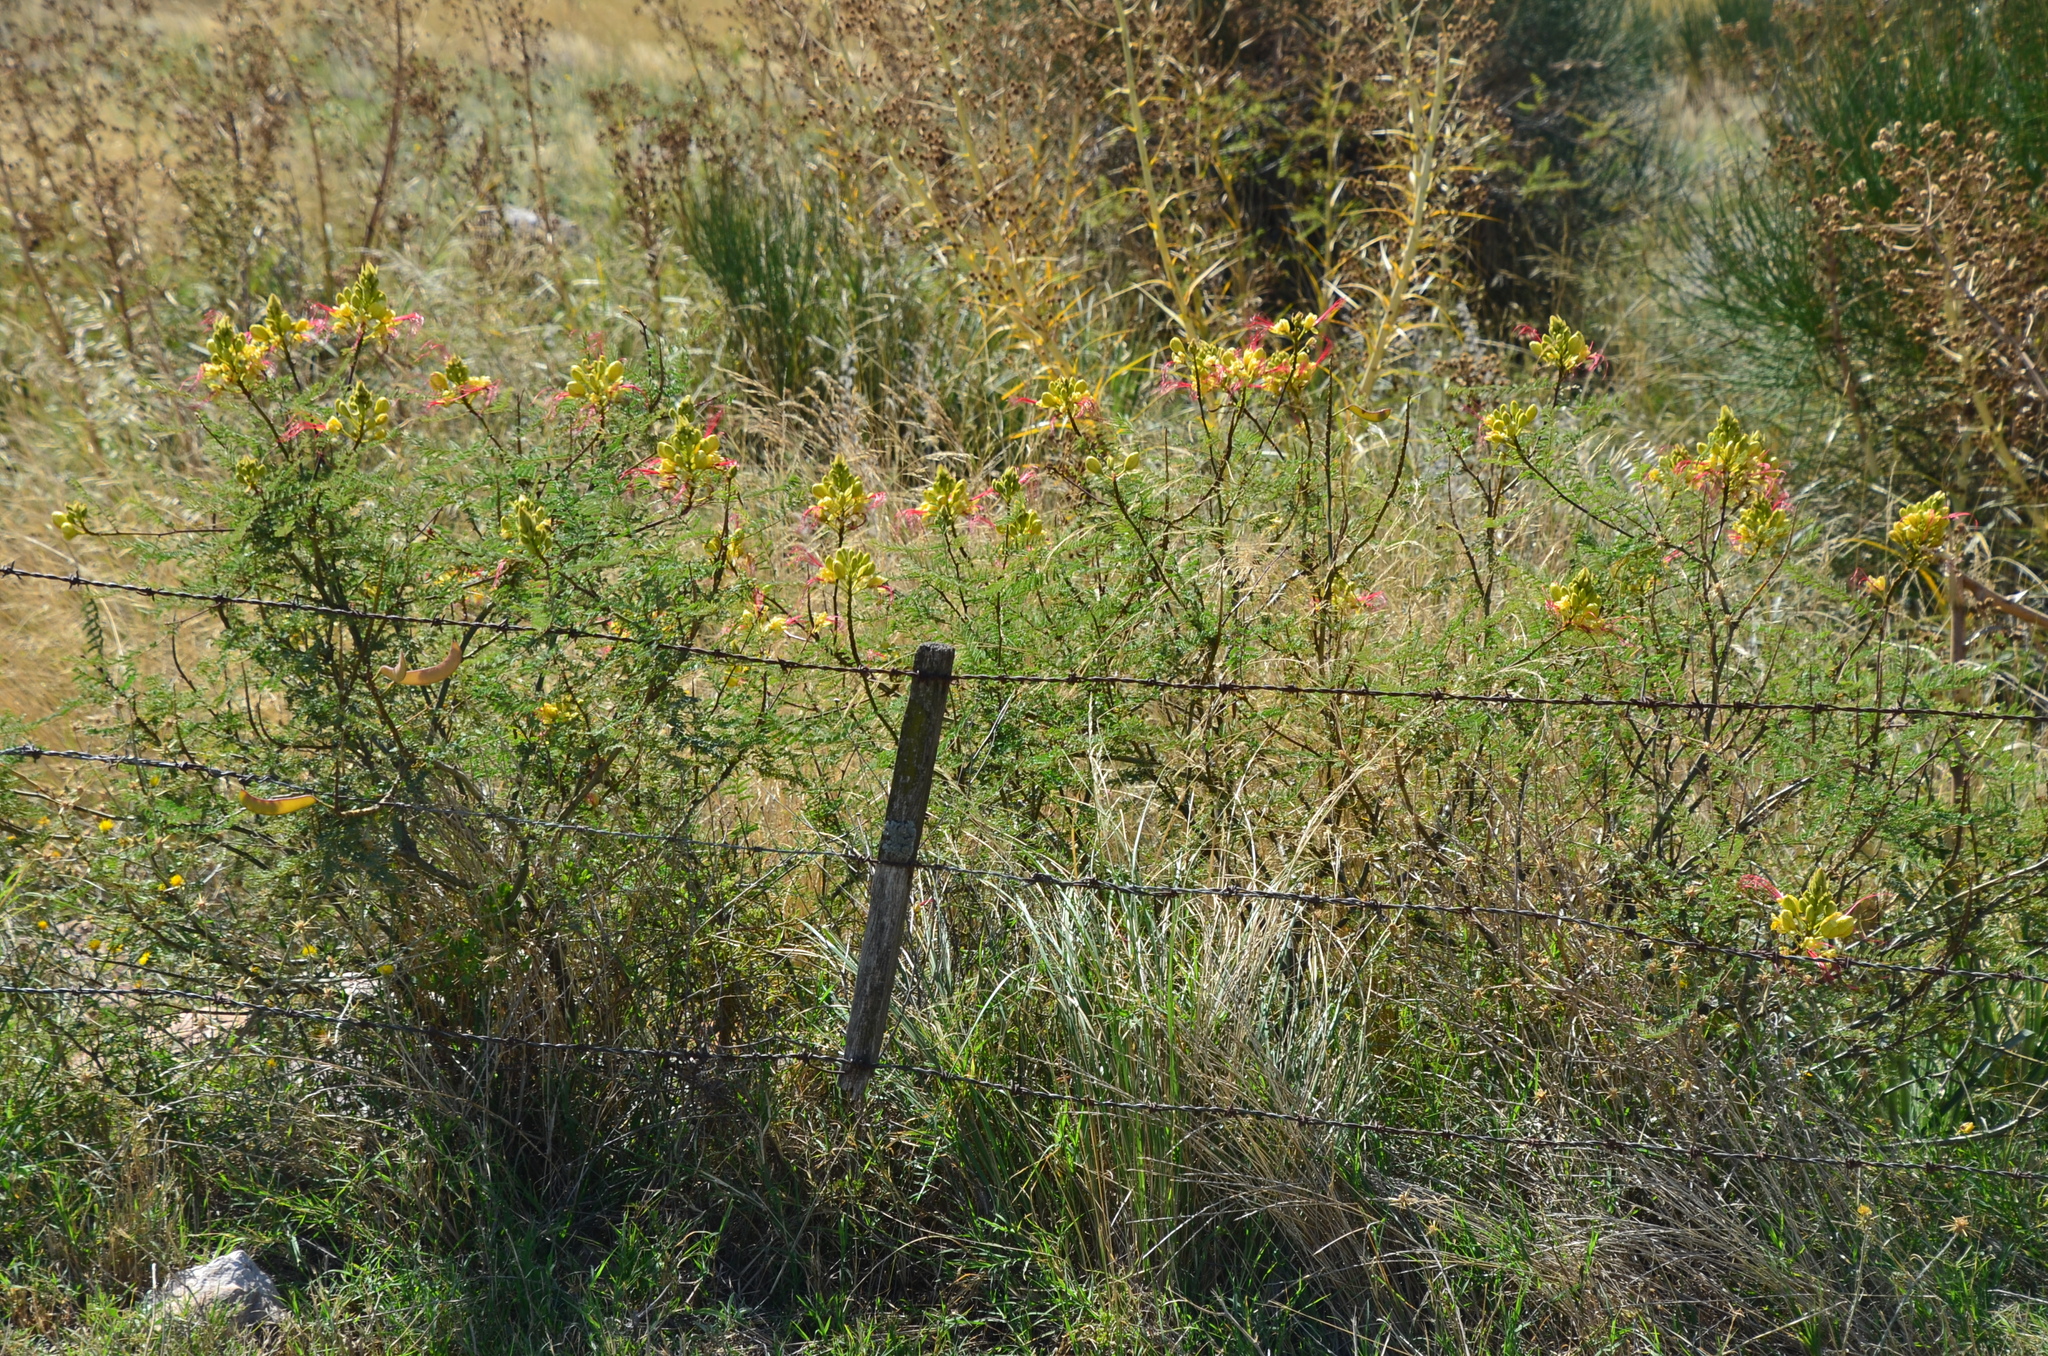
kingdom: Plantae
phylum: Tracheophyta
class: Magnoliopsida
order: Fabales
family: Fabaceae
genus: Erythrostemon
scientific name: Erythrostemon gilliesii
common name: Bird-of-paradise shrub
